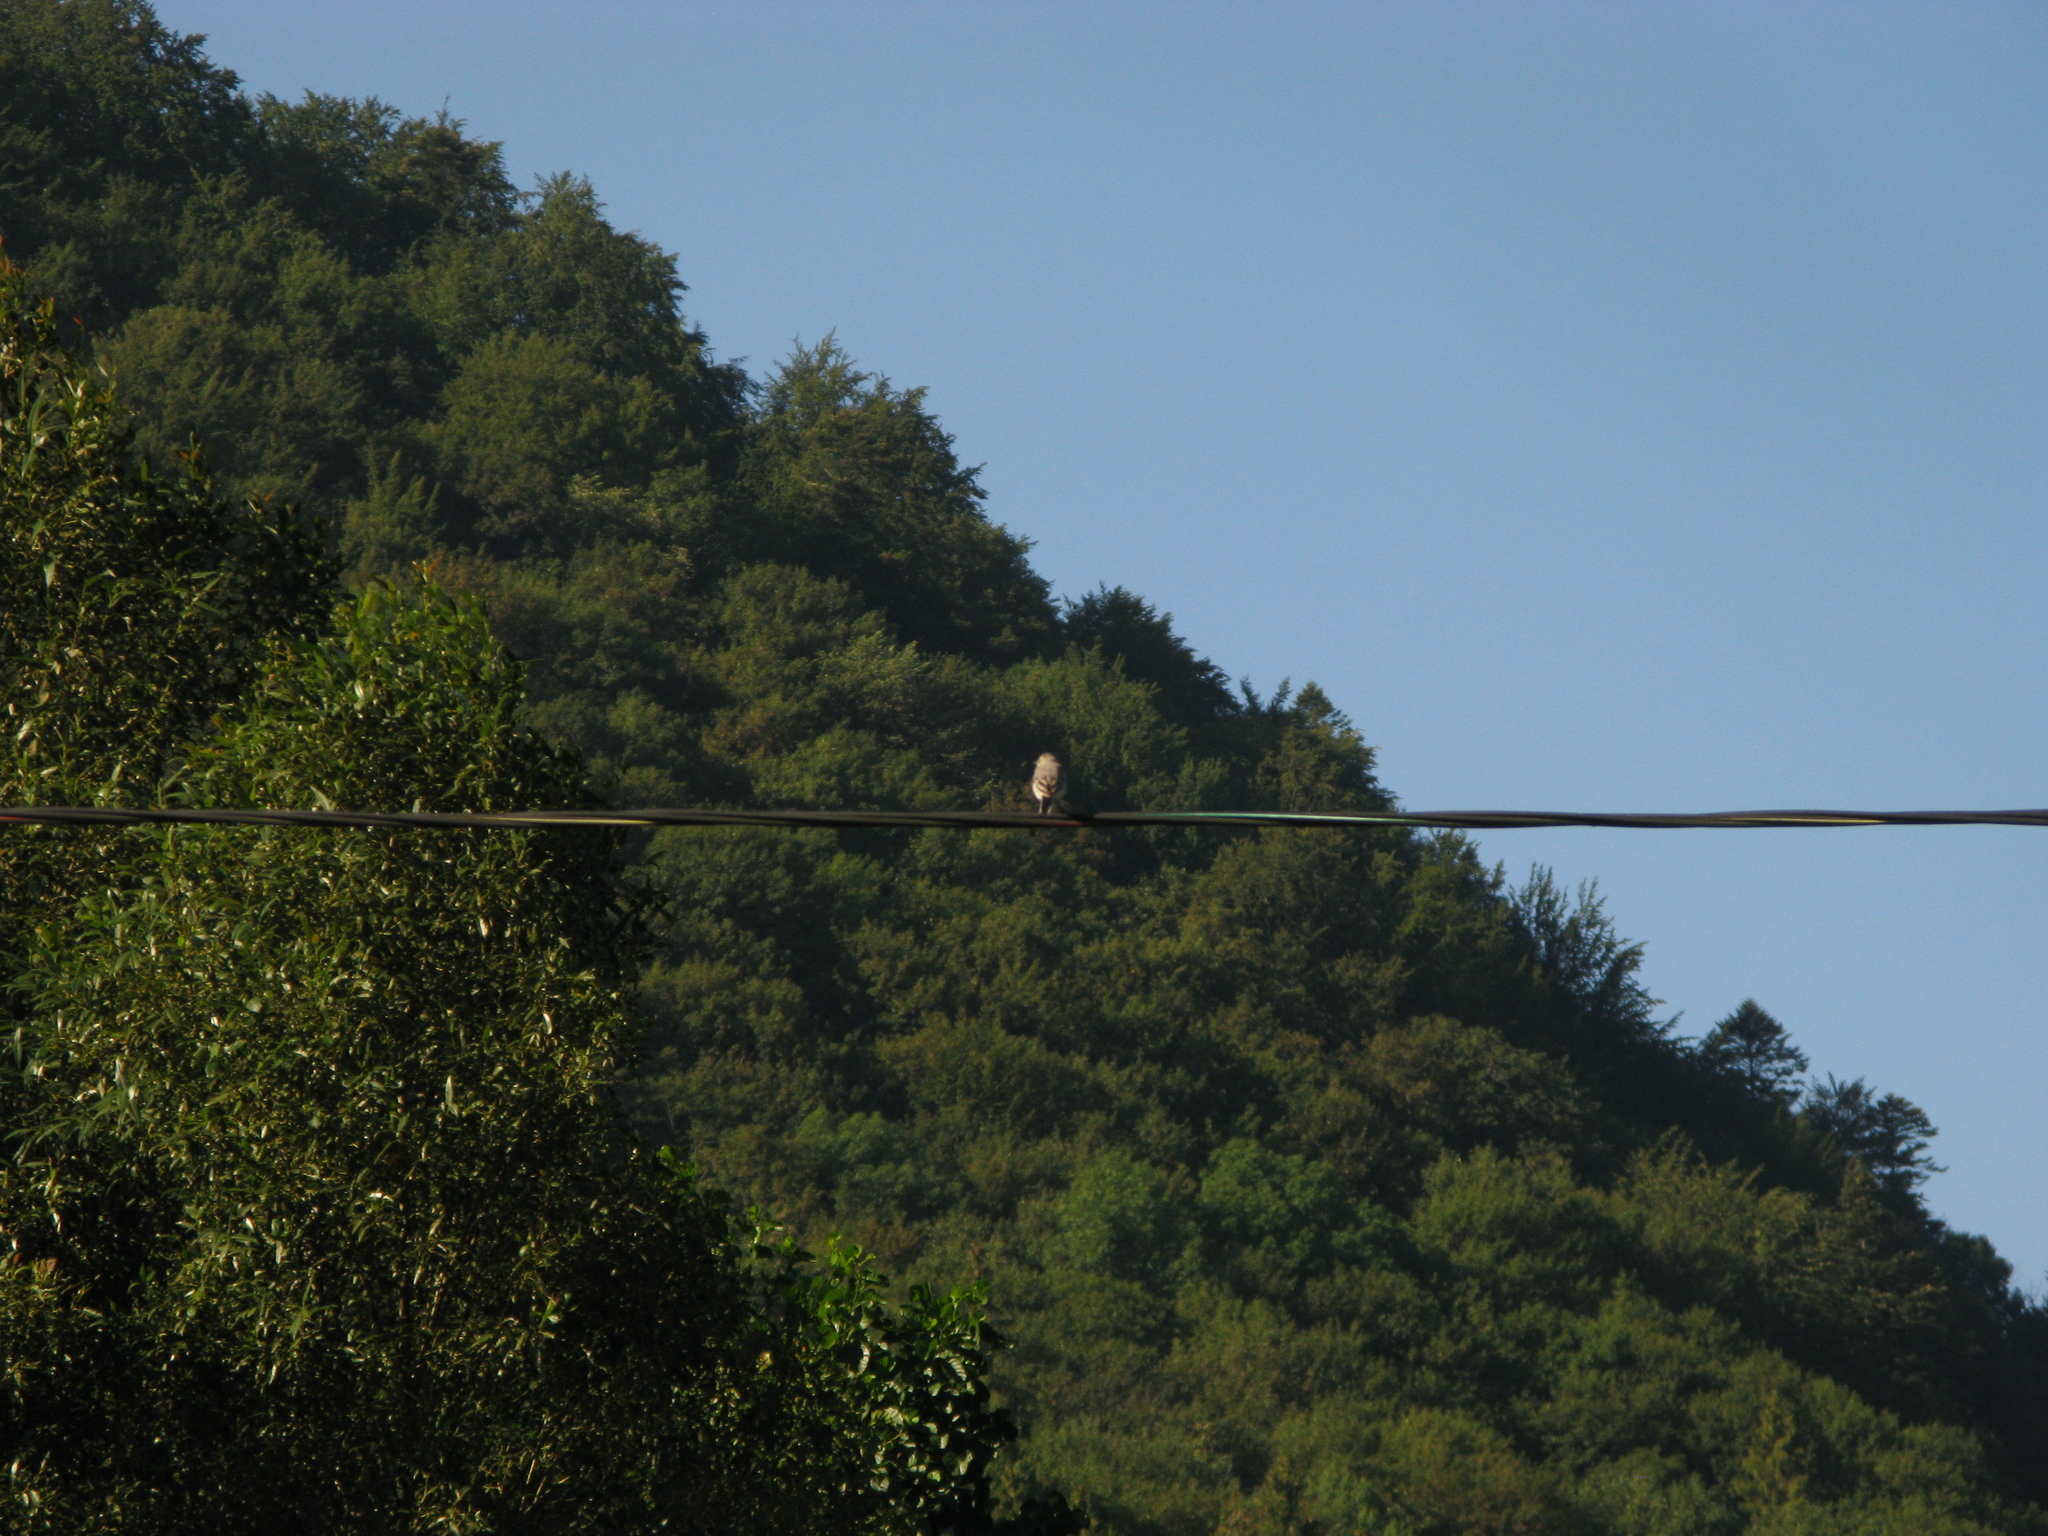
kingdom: Animalia
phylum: Chordata
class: Aves
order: Passeriformes
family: Motacillidae
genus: Motacilla
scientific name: Motacilla alba
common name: White wagtail
